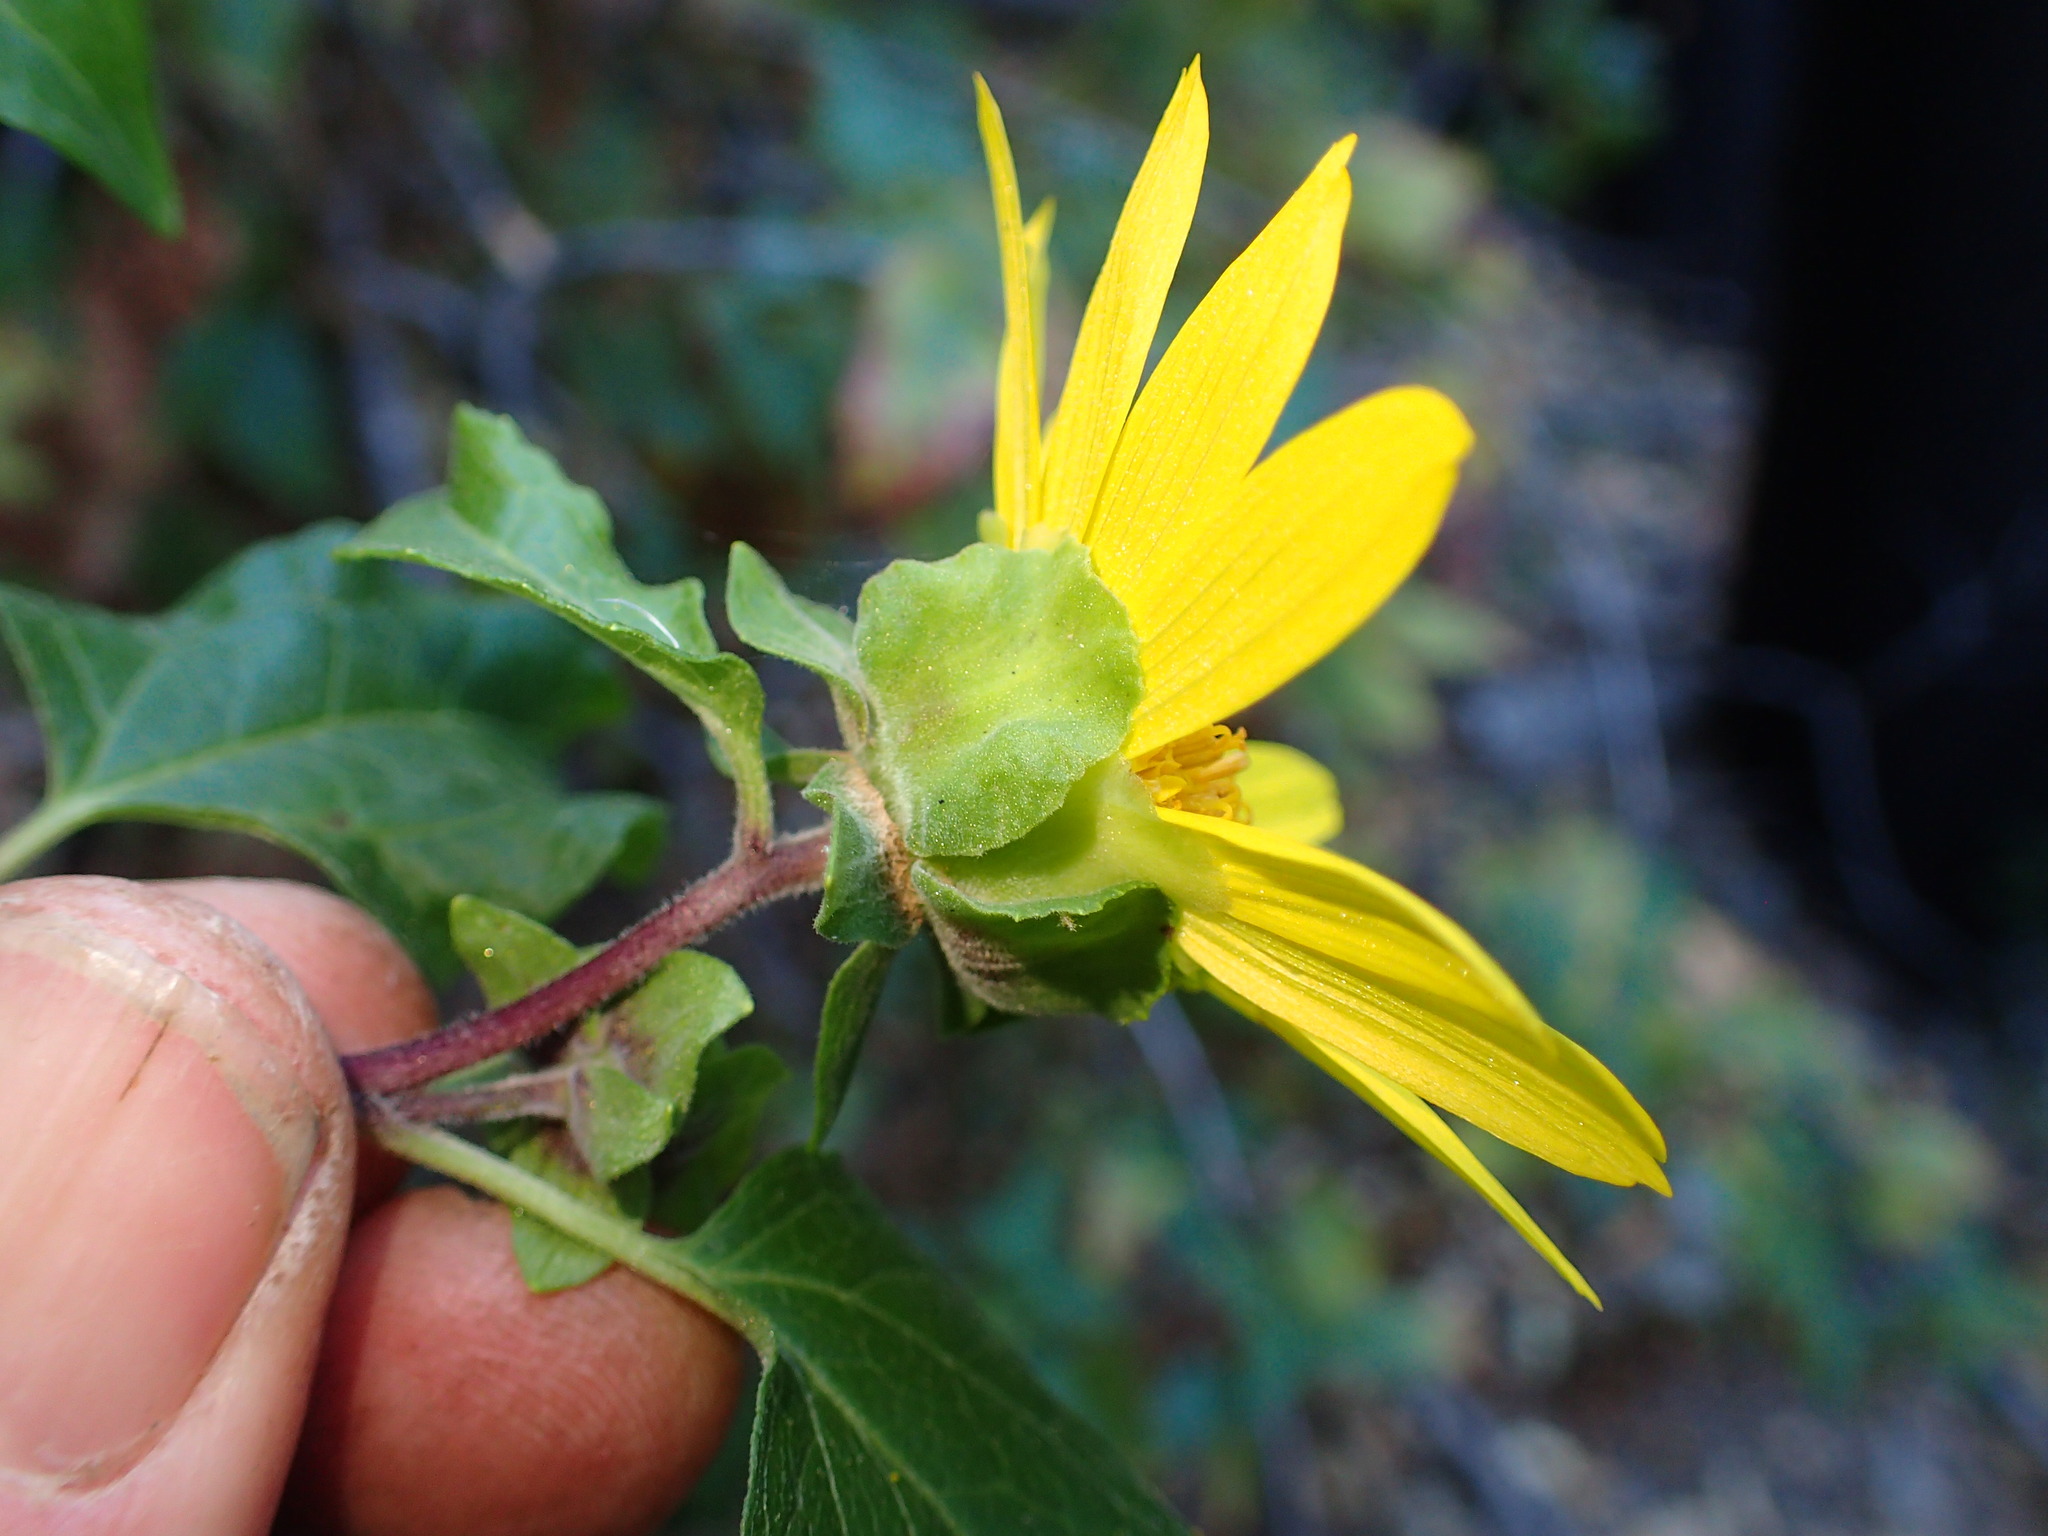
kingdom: Plantae
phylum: Tracheophyta
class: Magnoliopsida
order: Asterales
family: Asteraceae
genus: Venegasia
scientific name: Venegasia carpesioides
